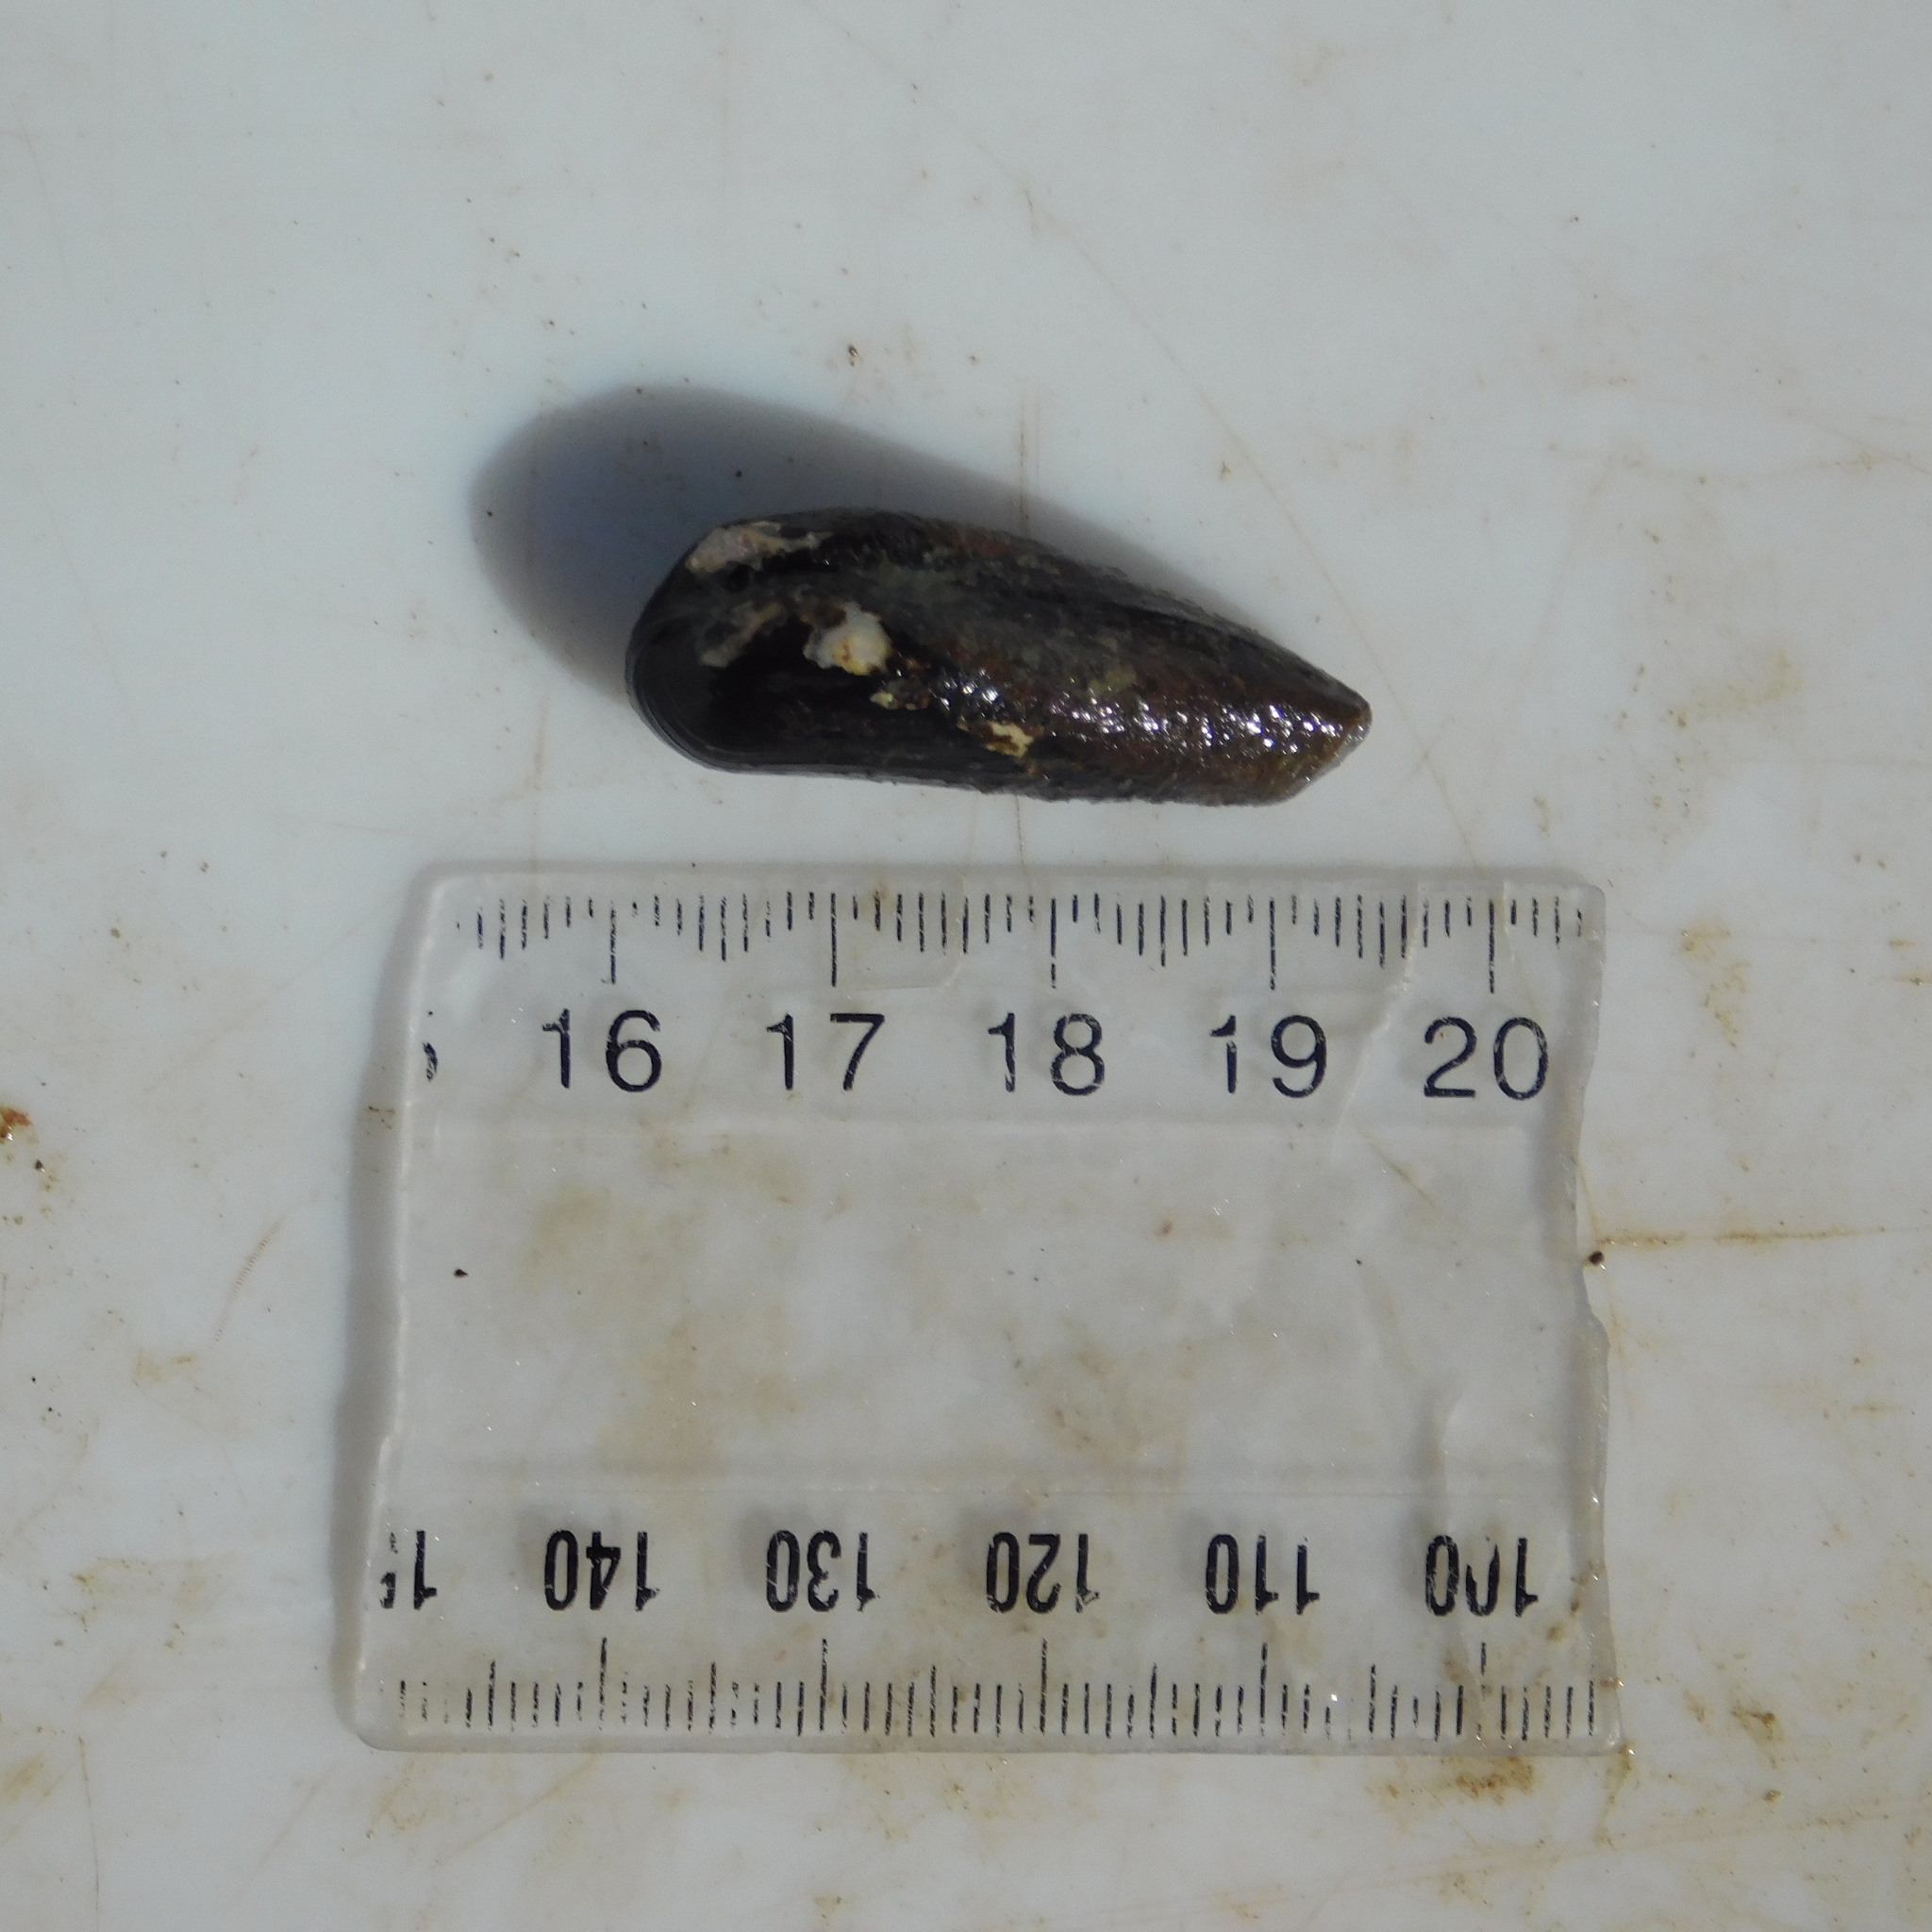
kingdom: Animalia
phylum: Mollusca
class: Bivalvia
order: Mytilida
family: Mytilidae
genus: Zelithophaga
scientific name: Zelithophaga truncata
